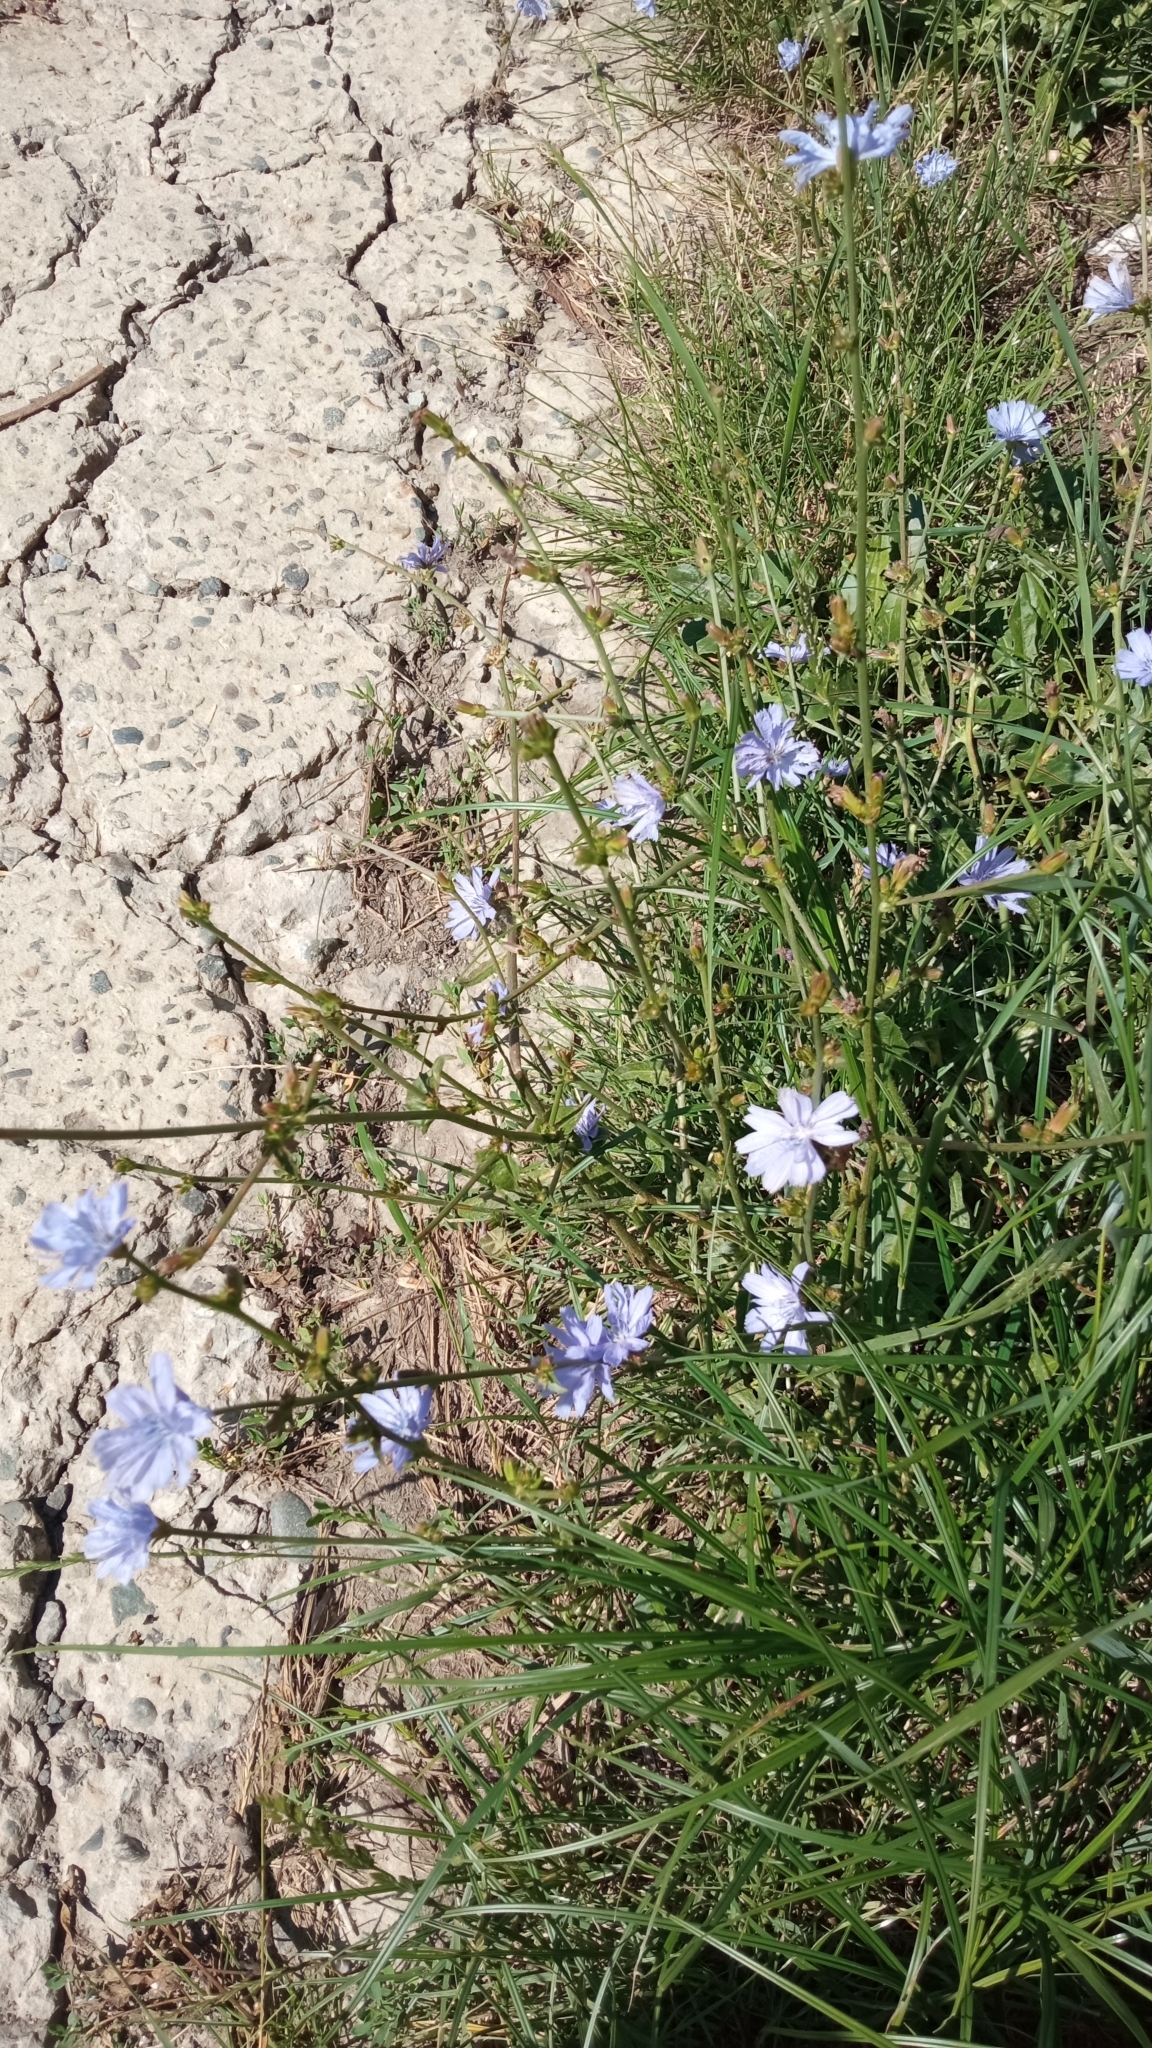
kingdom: Plantae
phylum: Tracheophyta
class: Magnoliopsida
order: Asterales
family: Asteraceae
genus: Cichorium
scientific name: Cichorium intybus
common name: Chicory
